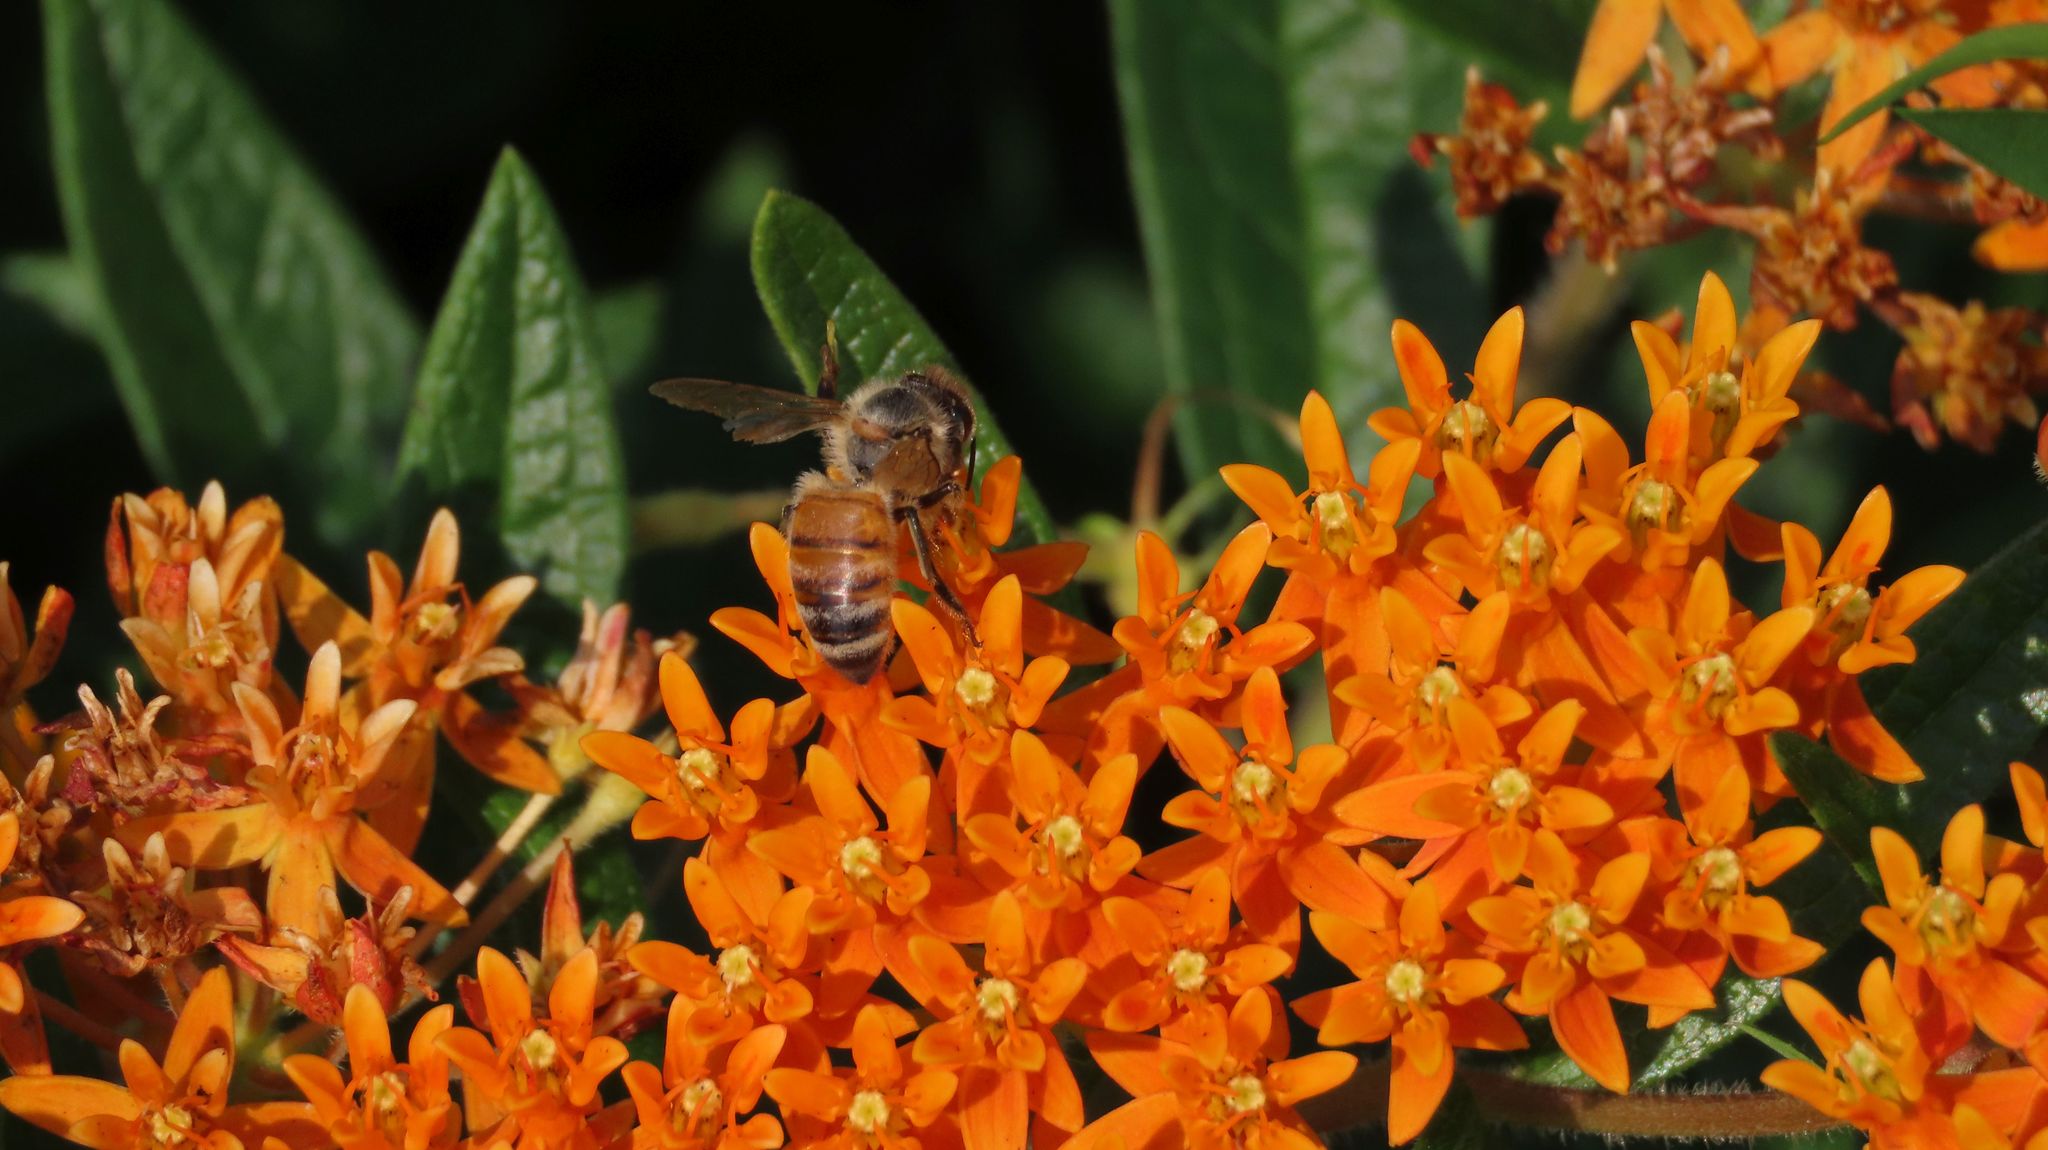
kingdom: Animalia
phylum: Arthropoda
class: Insecta
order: Hymenoptera
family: Apidae
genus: Apis
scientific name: Apis mellifera
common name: Honey bee
